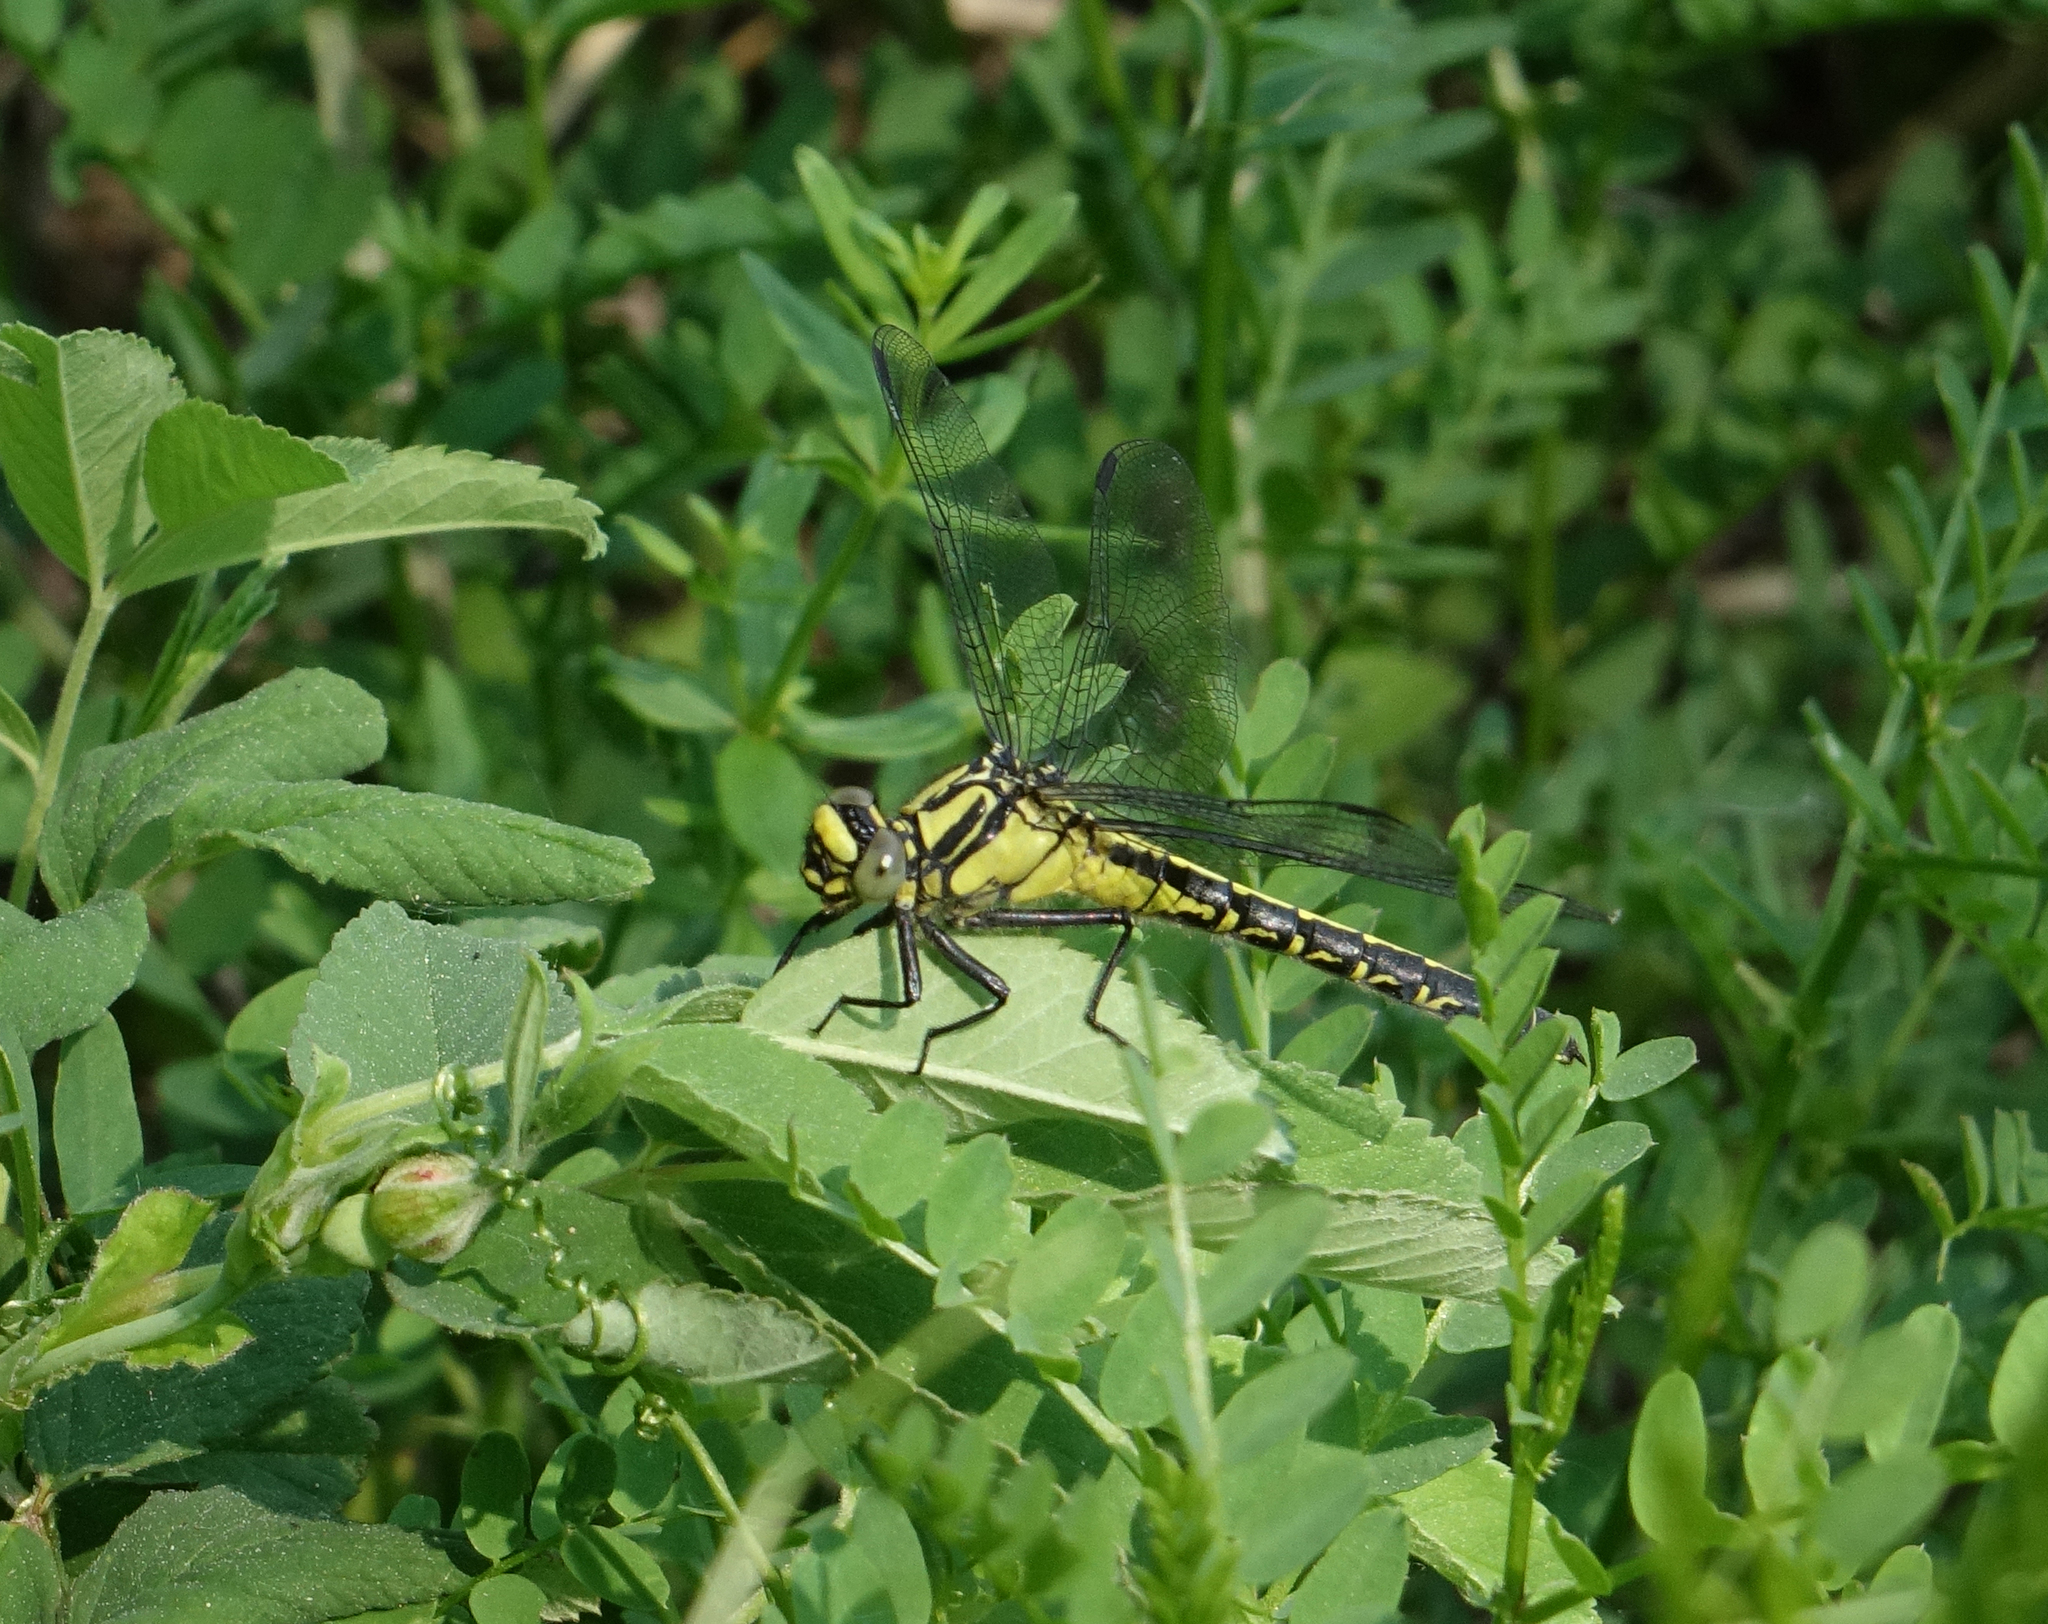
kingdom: Animalia
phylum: Arthropoda
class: Insecta
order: Odonata
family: Gomphidae
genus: Gomphus
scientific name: Gomphus vulgatissimus
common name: Club-tailed dragonfly
